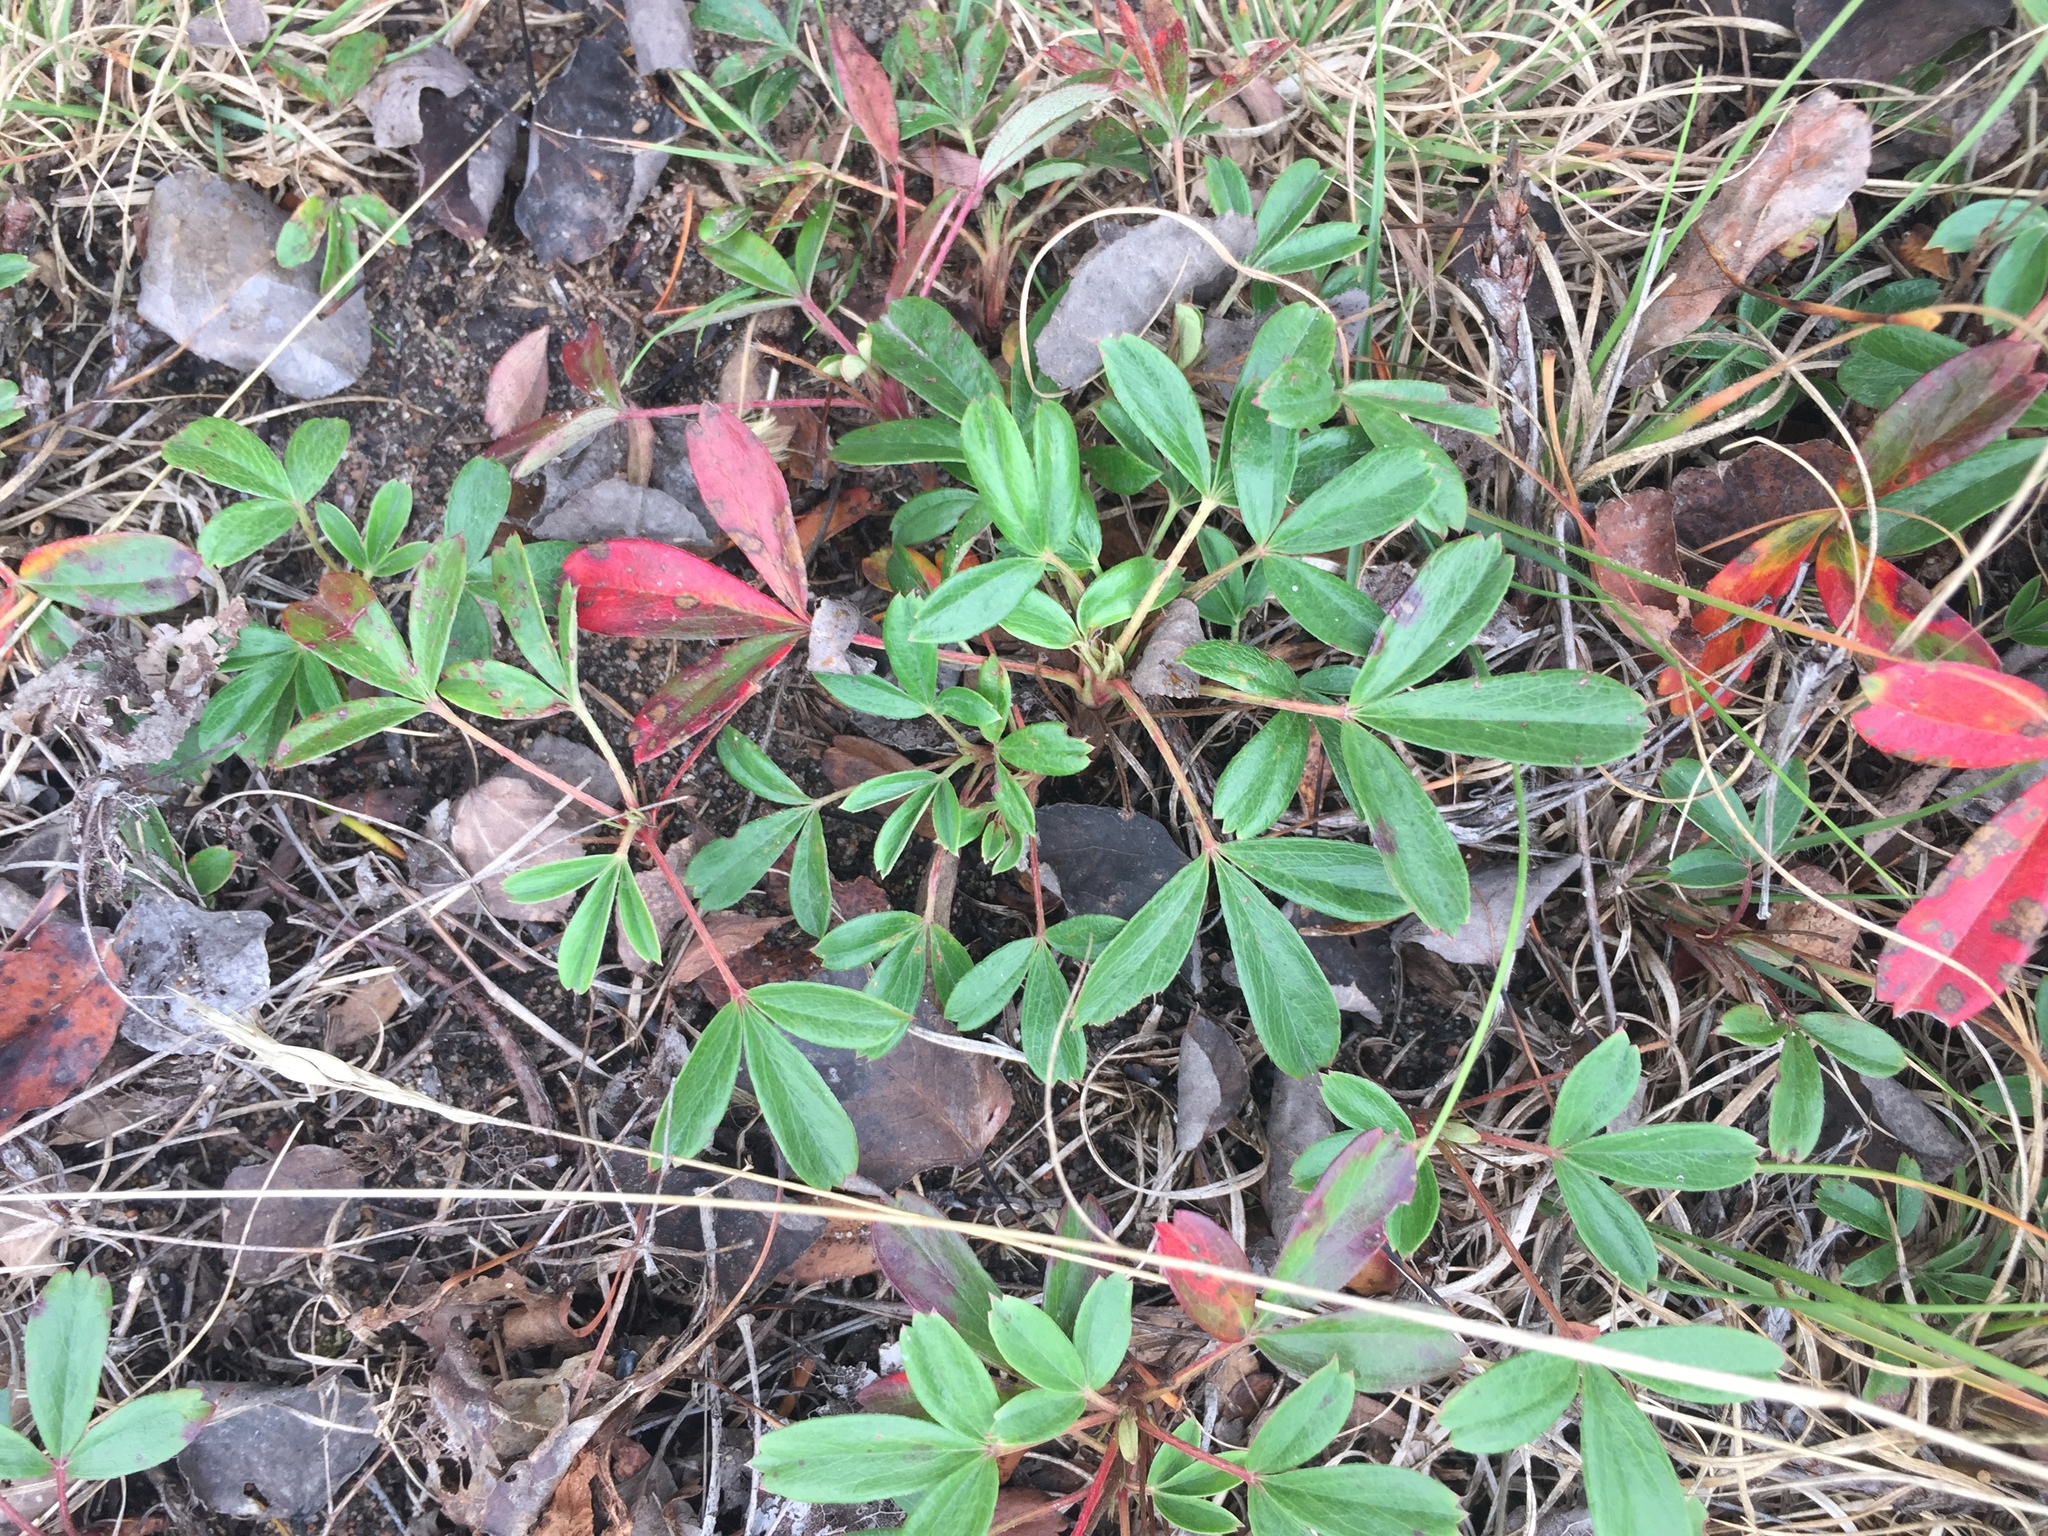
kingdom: Plantae
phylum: Tracheophyta
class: Magnoliopsida
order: Rosales
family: Rosaceae
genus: Sibbaldia
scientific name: Sibbaldia tridentata
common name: Three-toothed cinquefoil
